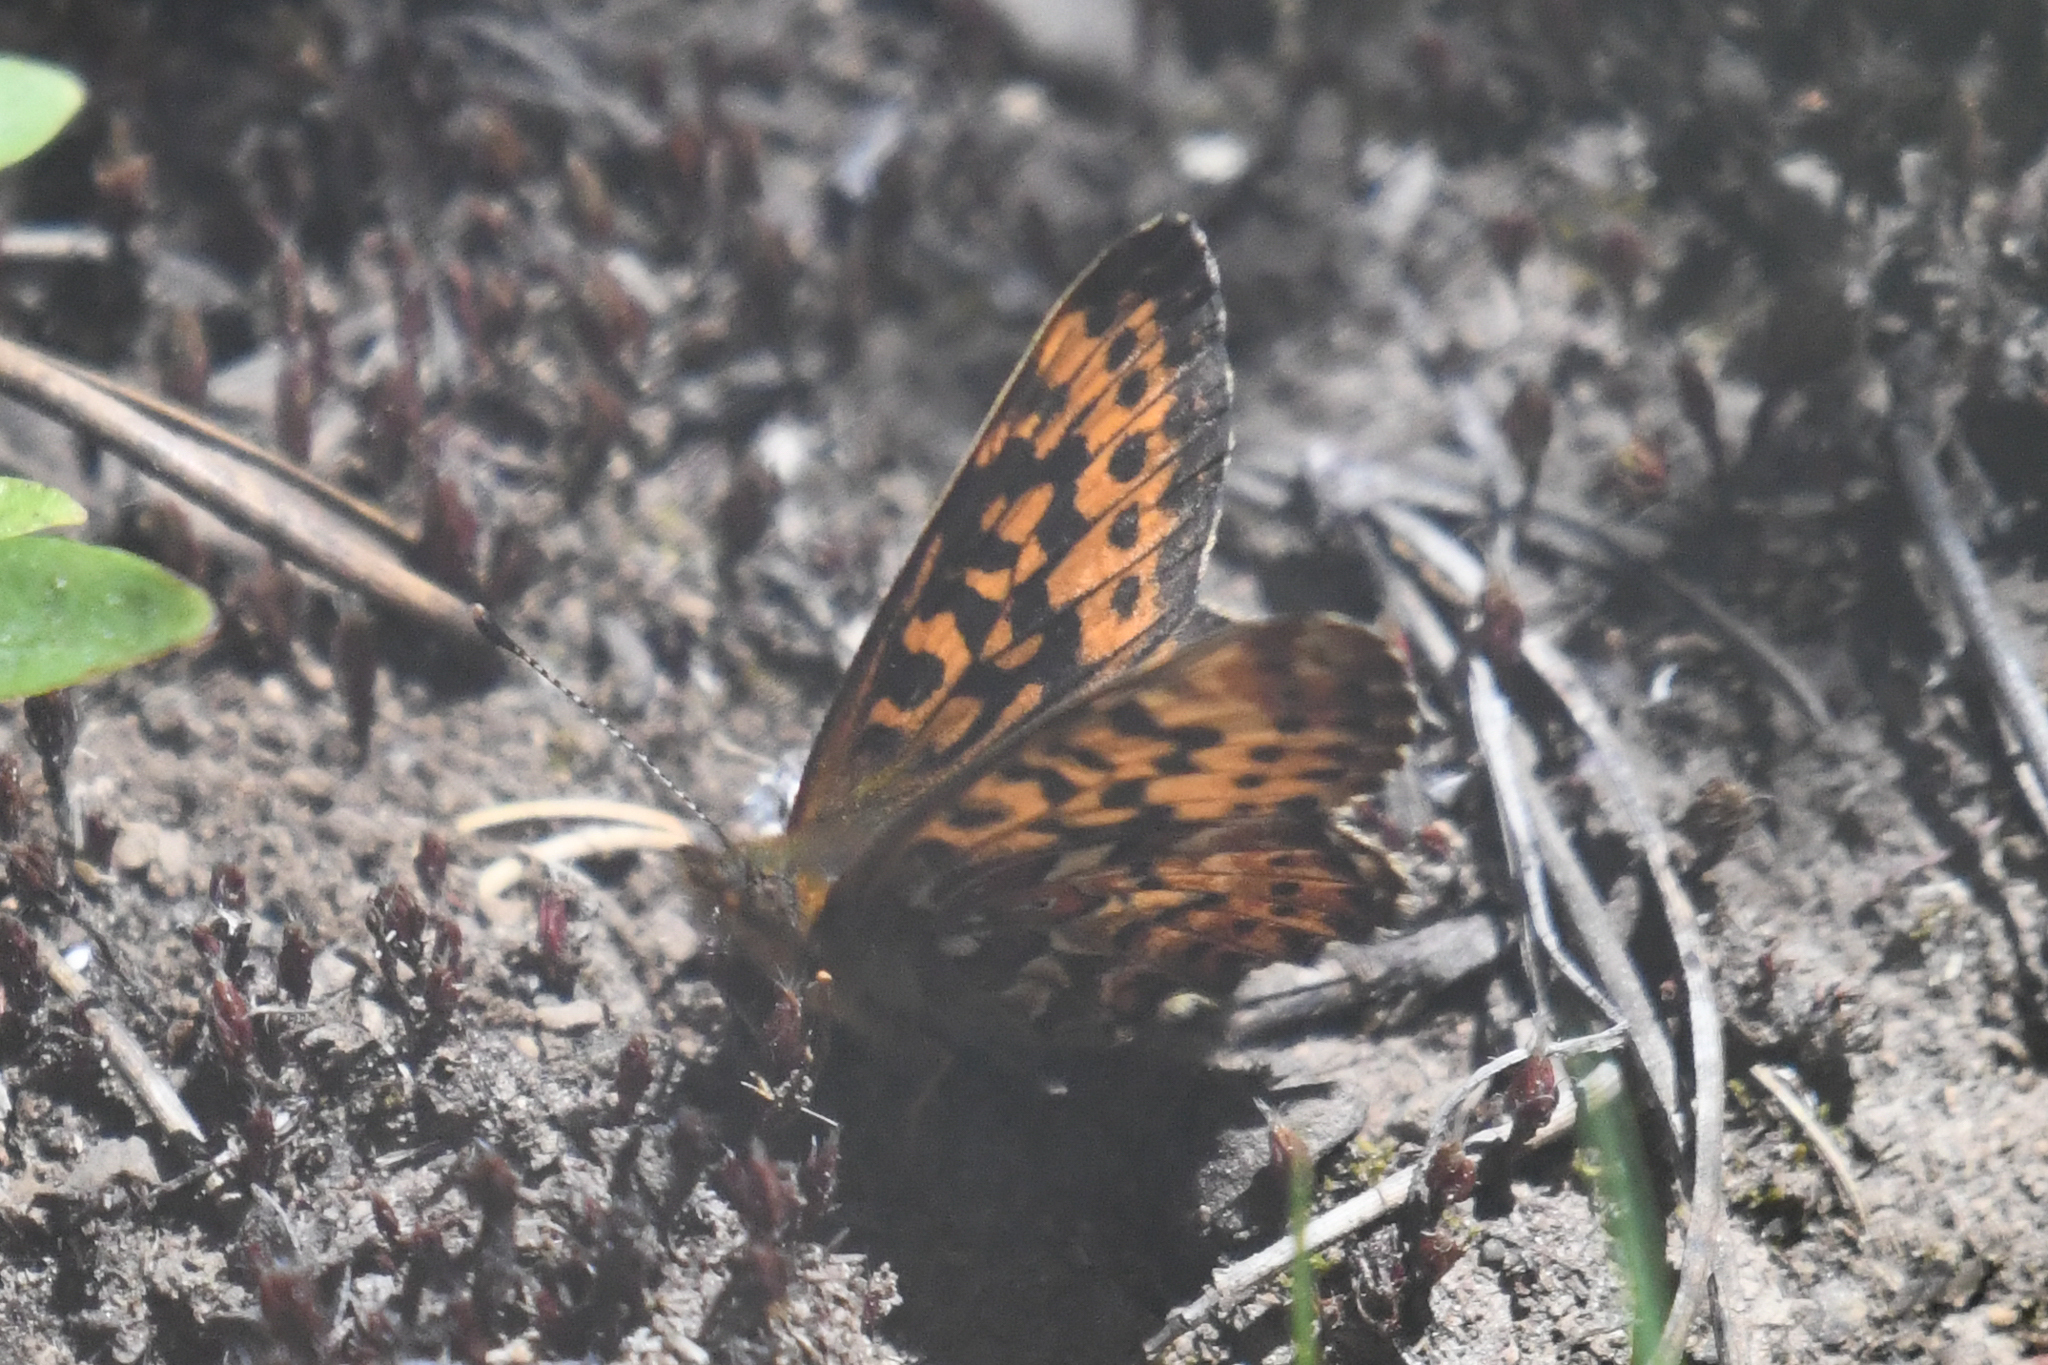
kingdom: Animalia
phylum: Arthropoda
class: Insecta
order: Lepidoptera
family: Nymphalidae
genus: Boloria
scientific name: Boloria chariclea
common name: Arctic fritillary
